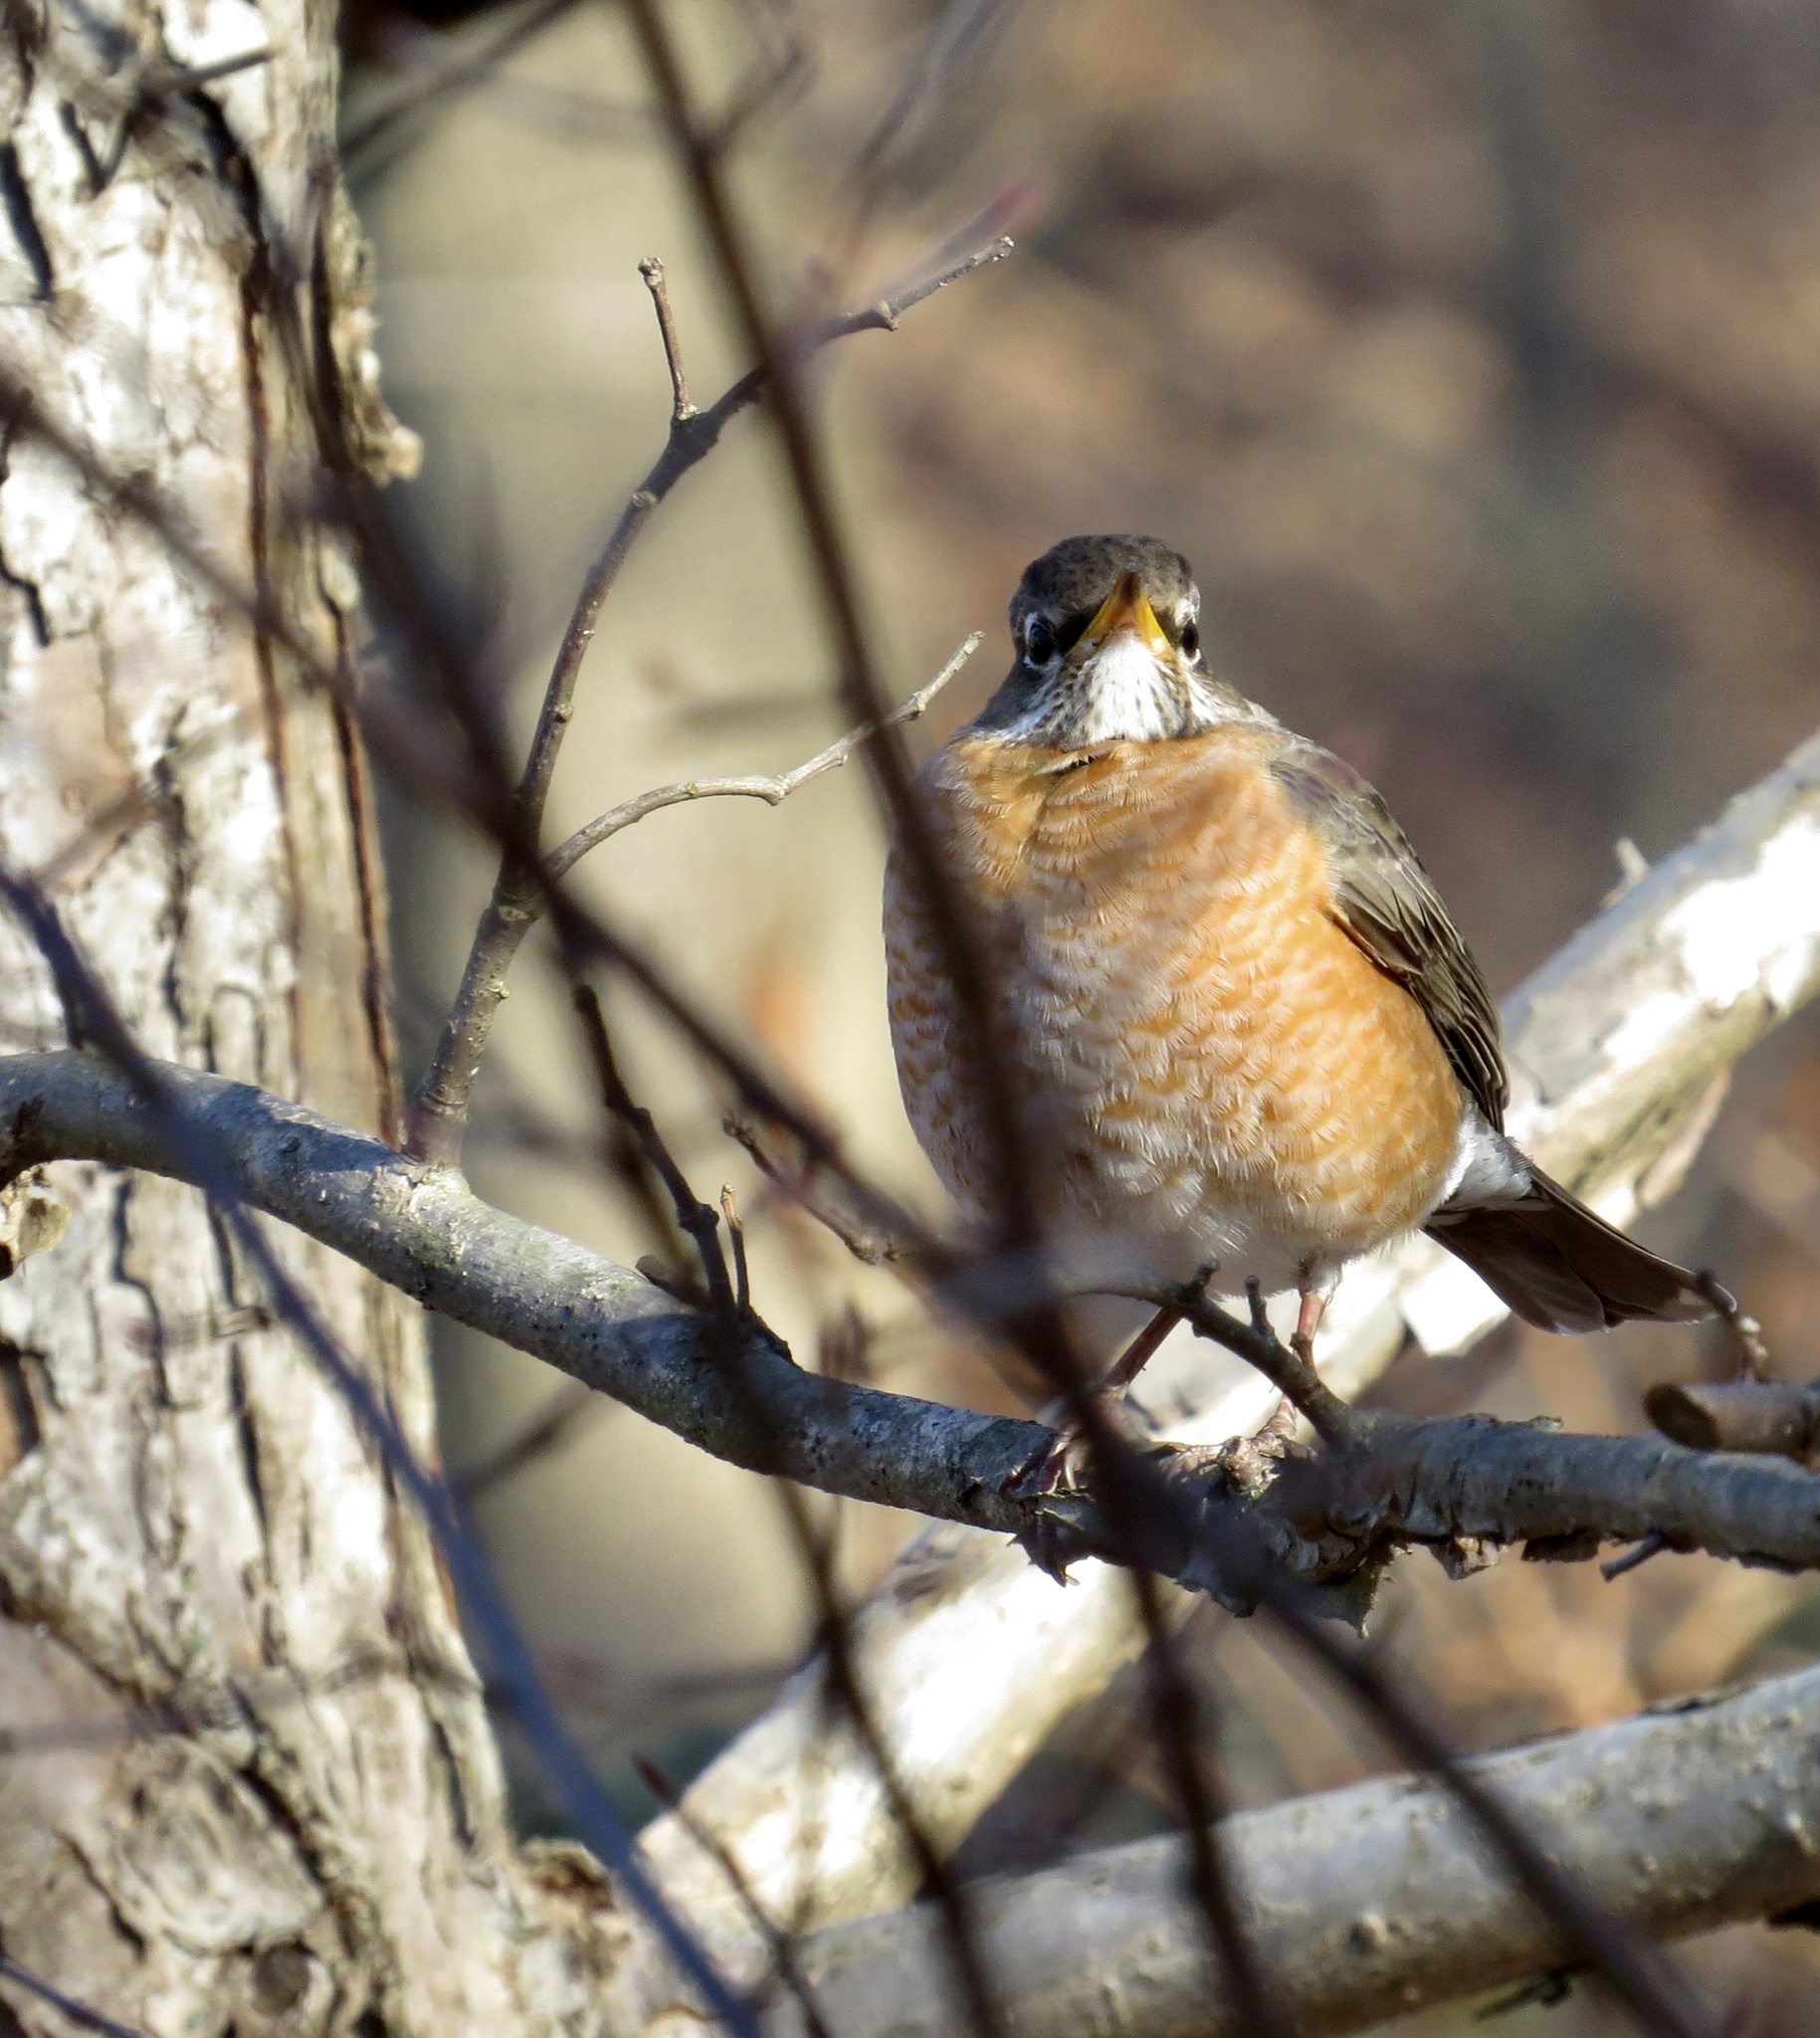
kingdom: Animalia
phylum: Chordata
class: Aves
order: Passeriformes
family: Turdidae
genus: Turdus
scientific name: Turdus migratorius
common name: American robin
